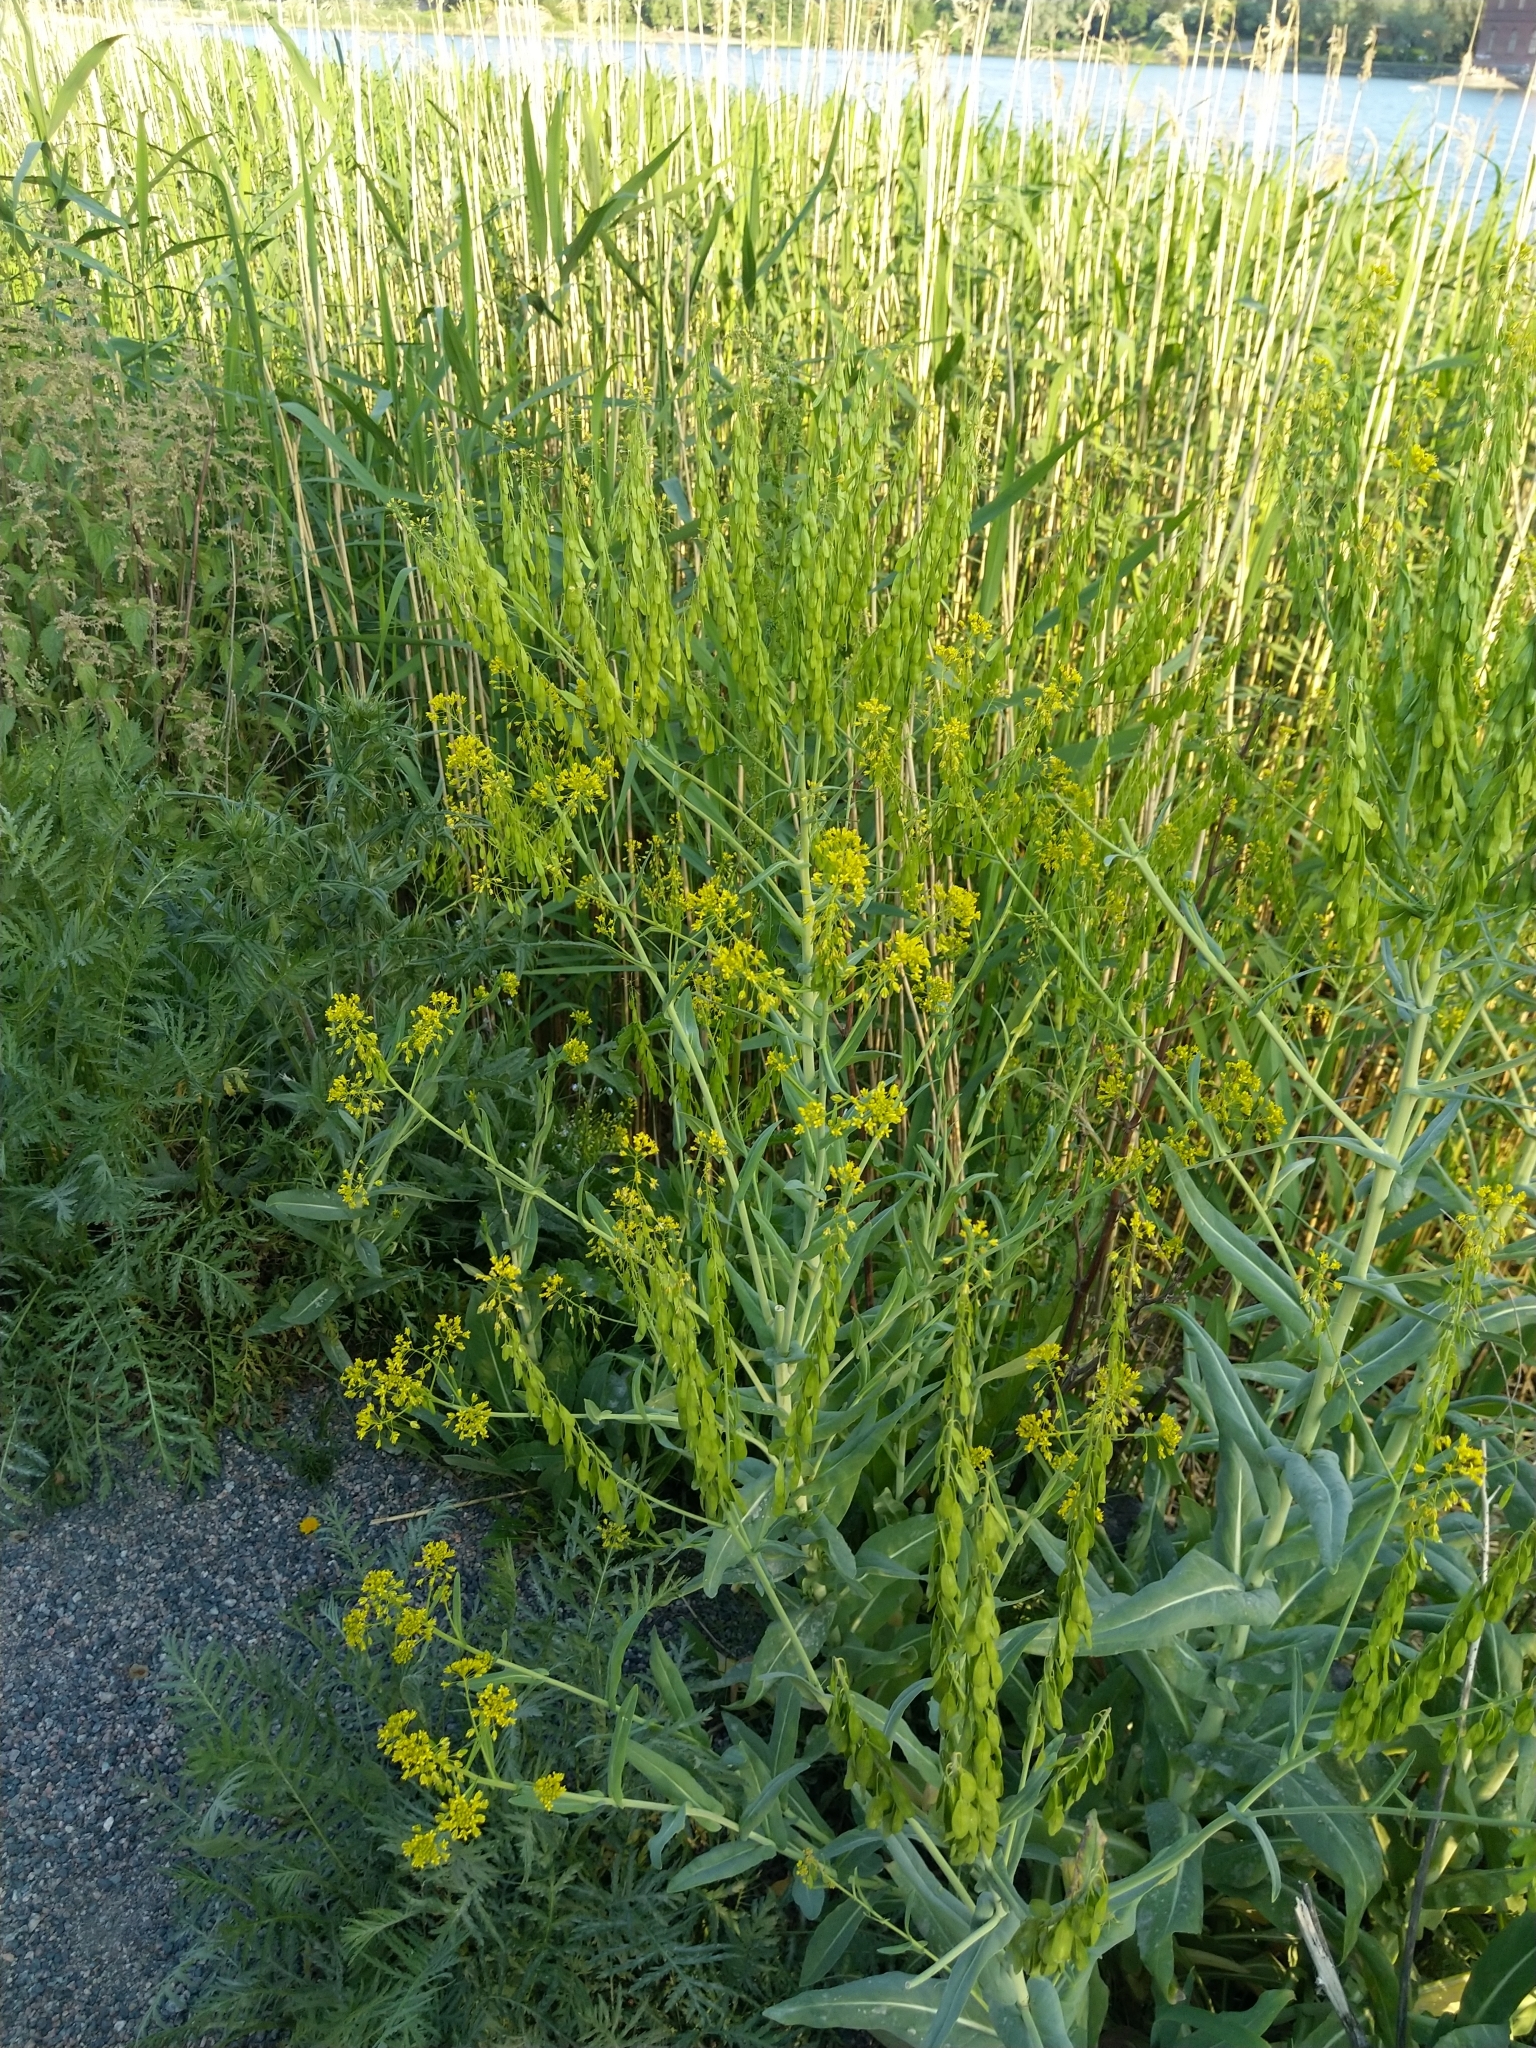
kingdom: Plantae
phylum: Tracheophyta
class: Magnoliopsida
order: Brassicales
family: Brassicaceae
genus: Isatis
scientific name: Isatis tinctoria
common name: Woad
